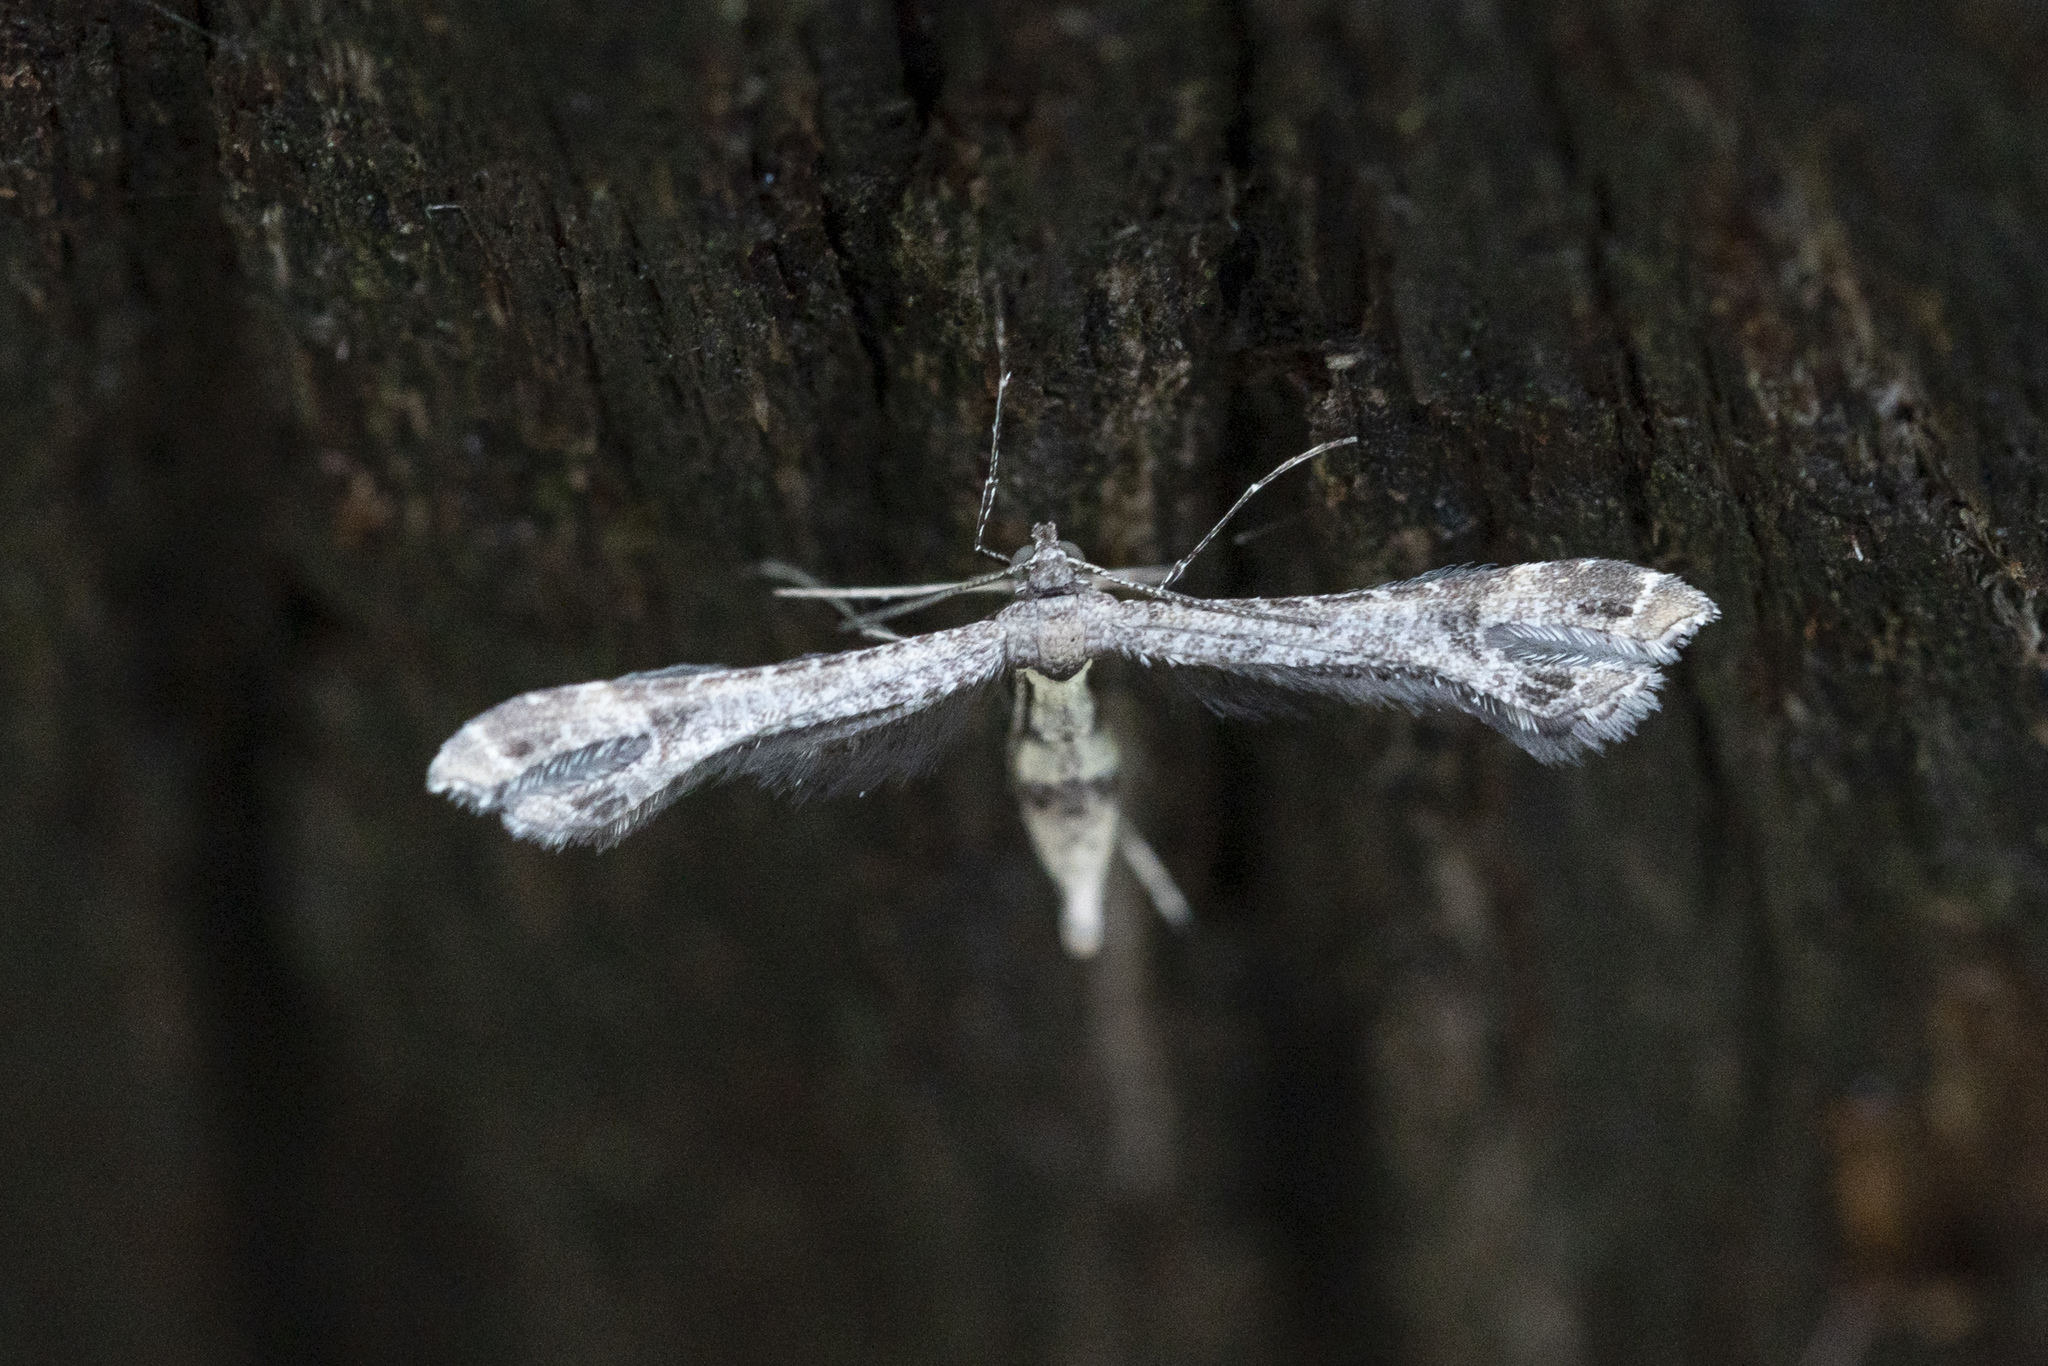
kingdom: Animalia
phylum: Arthropoda
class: Insecta
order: Lepidoptera
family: Pterophoridae
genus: Lantanophaga
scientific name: Lantanophaga pusillidactylus
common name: Moth
